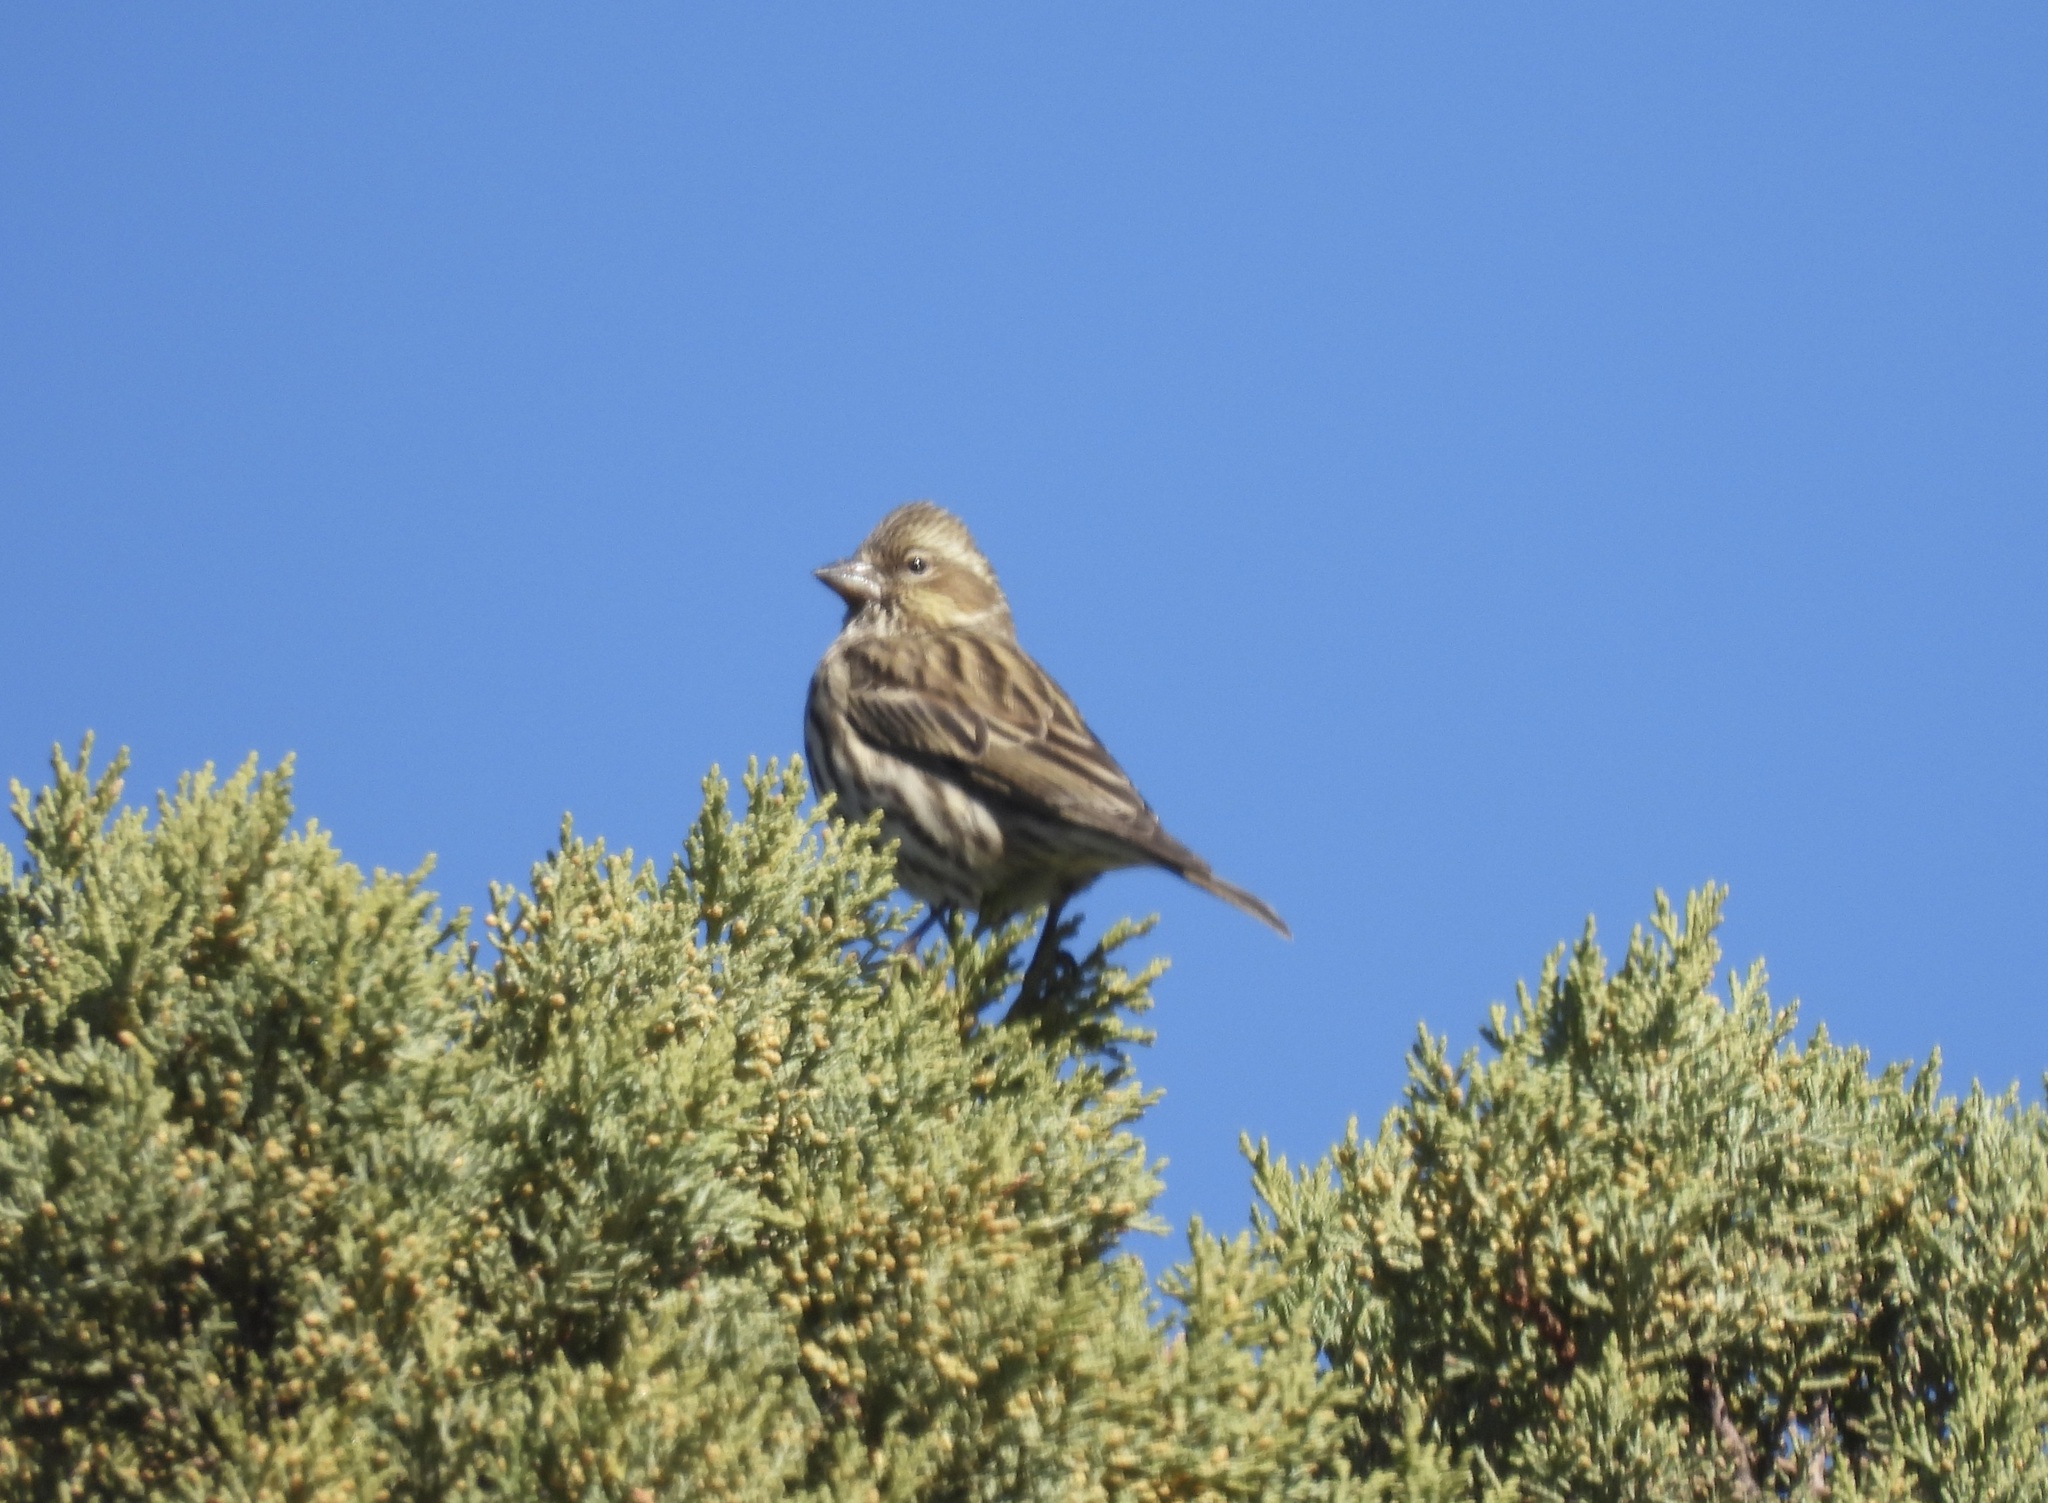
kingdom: Animalia
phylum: Chordata
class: Aves
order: Passeriformes
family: Fringillidae
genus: Haemorhous
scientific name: Haemorhous cassinii
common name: Cassin's finch
